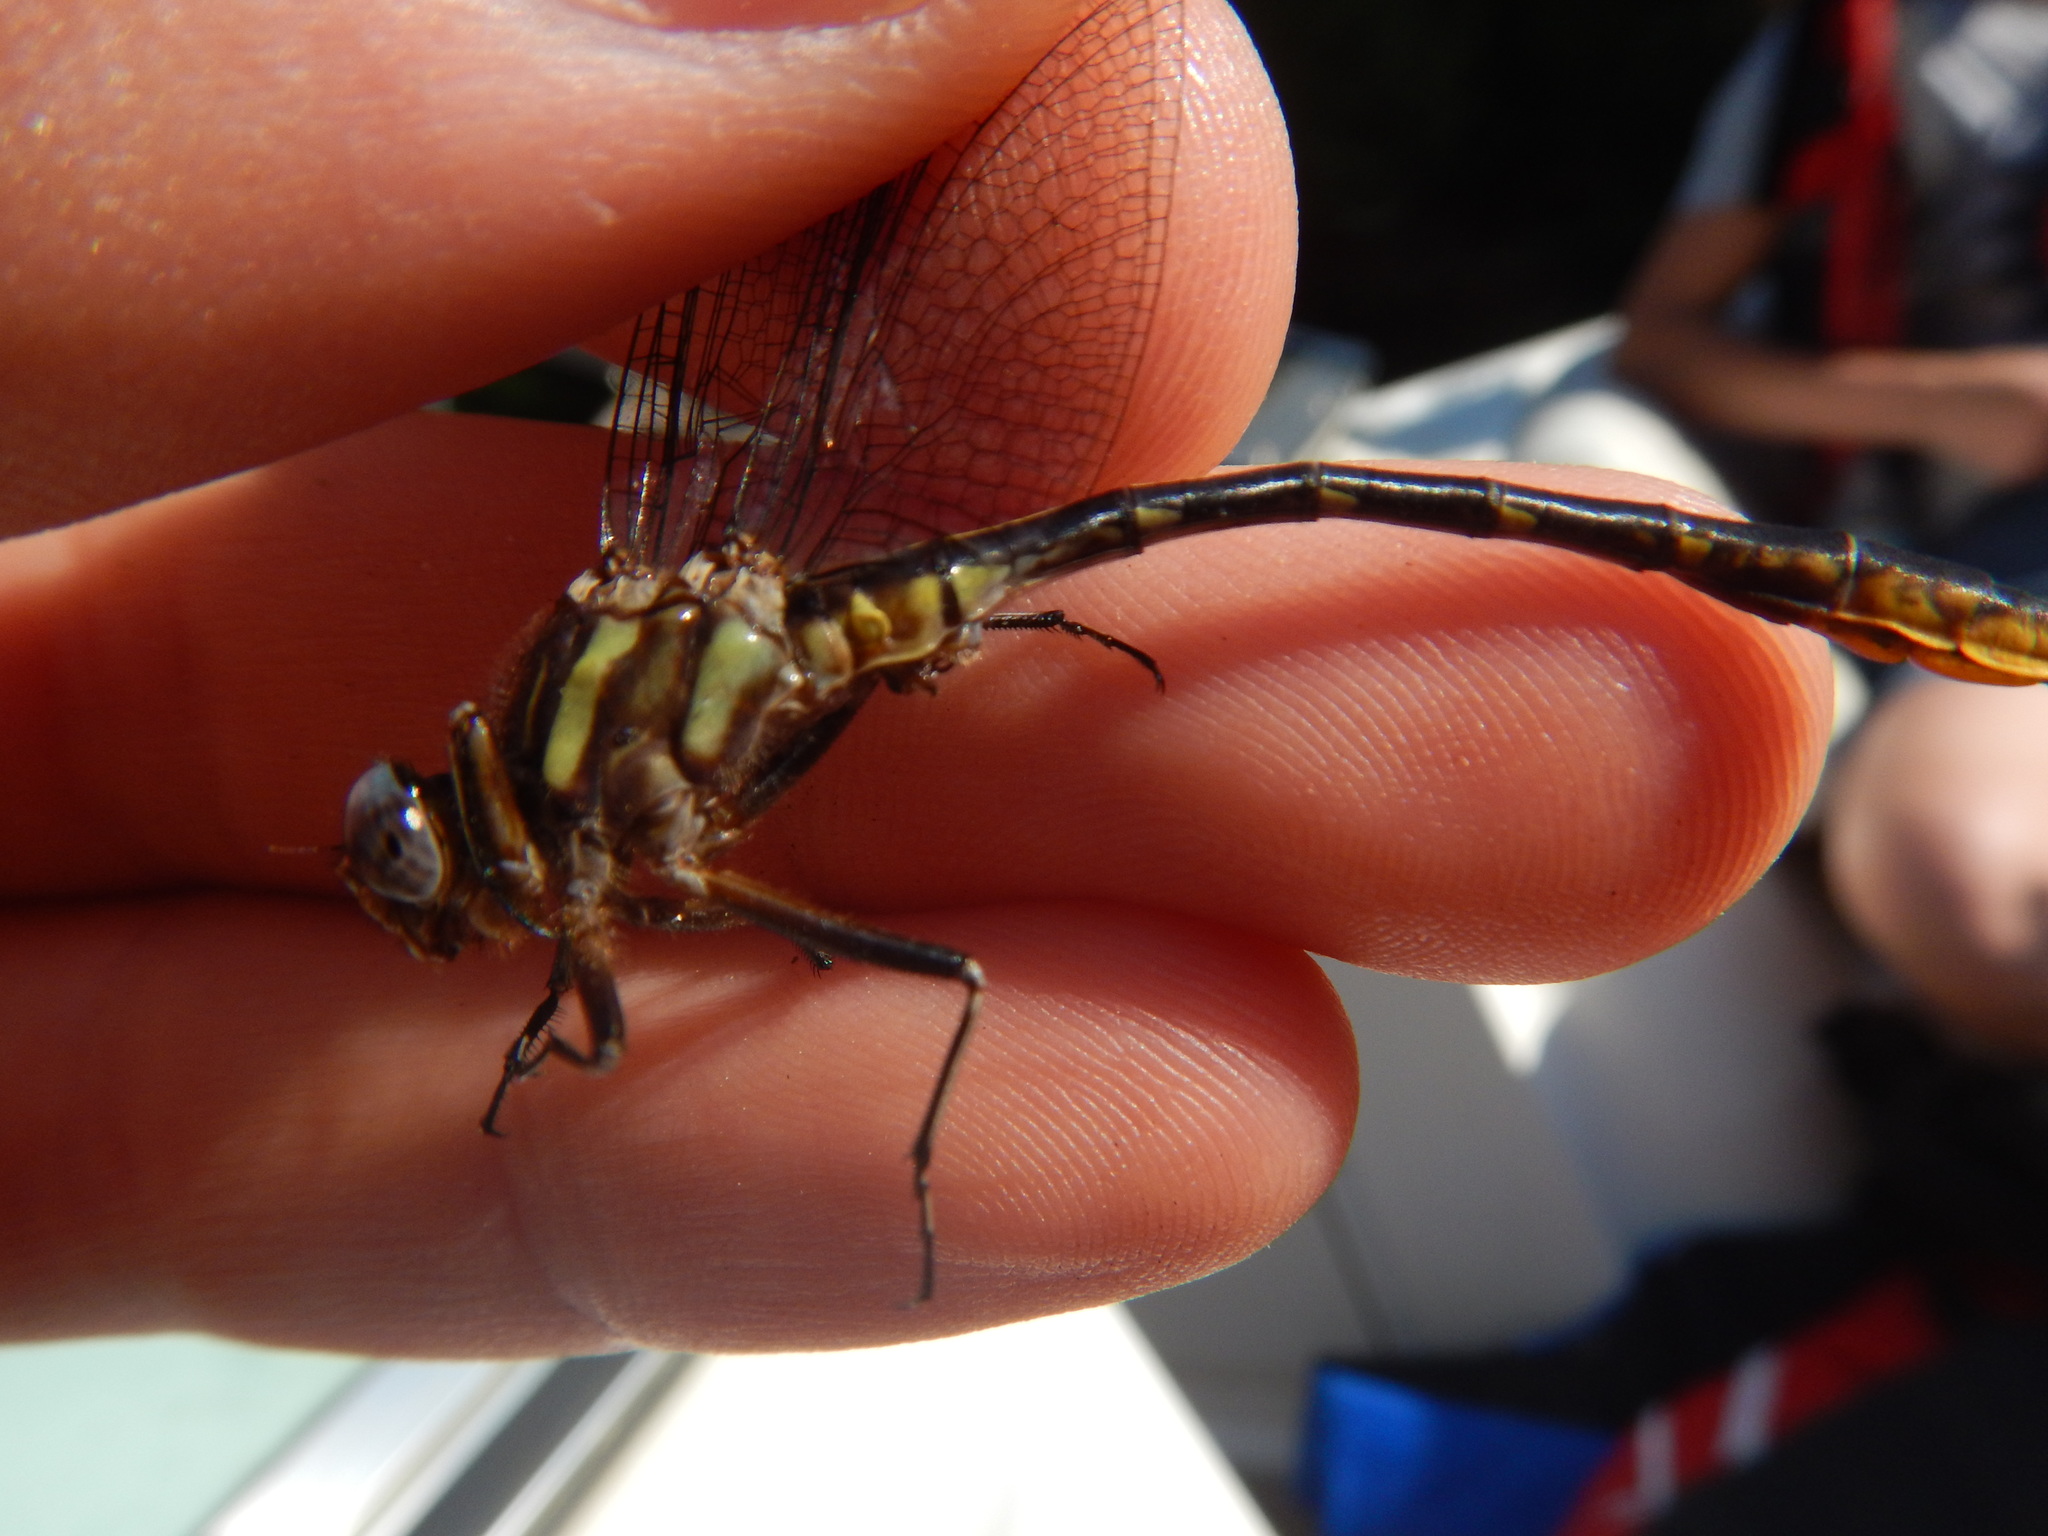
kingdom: Animalia
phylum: Arthropoda
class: Insecta
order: Odonata
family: Gomphidae
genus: Phanogomphus
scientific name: Phanogomphus exilis
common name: Lancet clubtail
